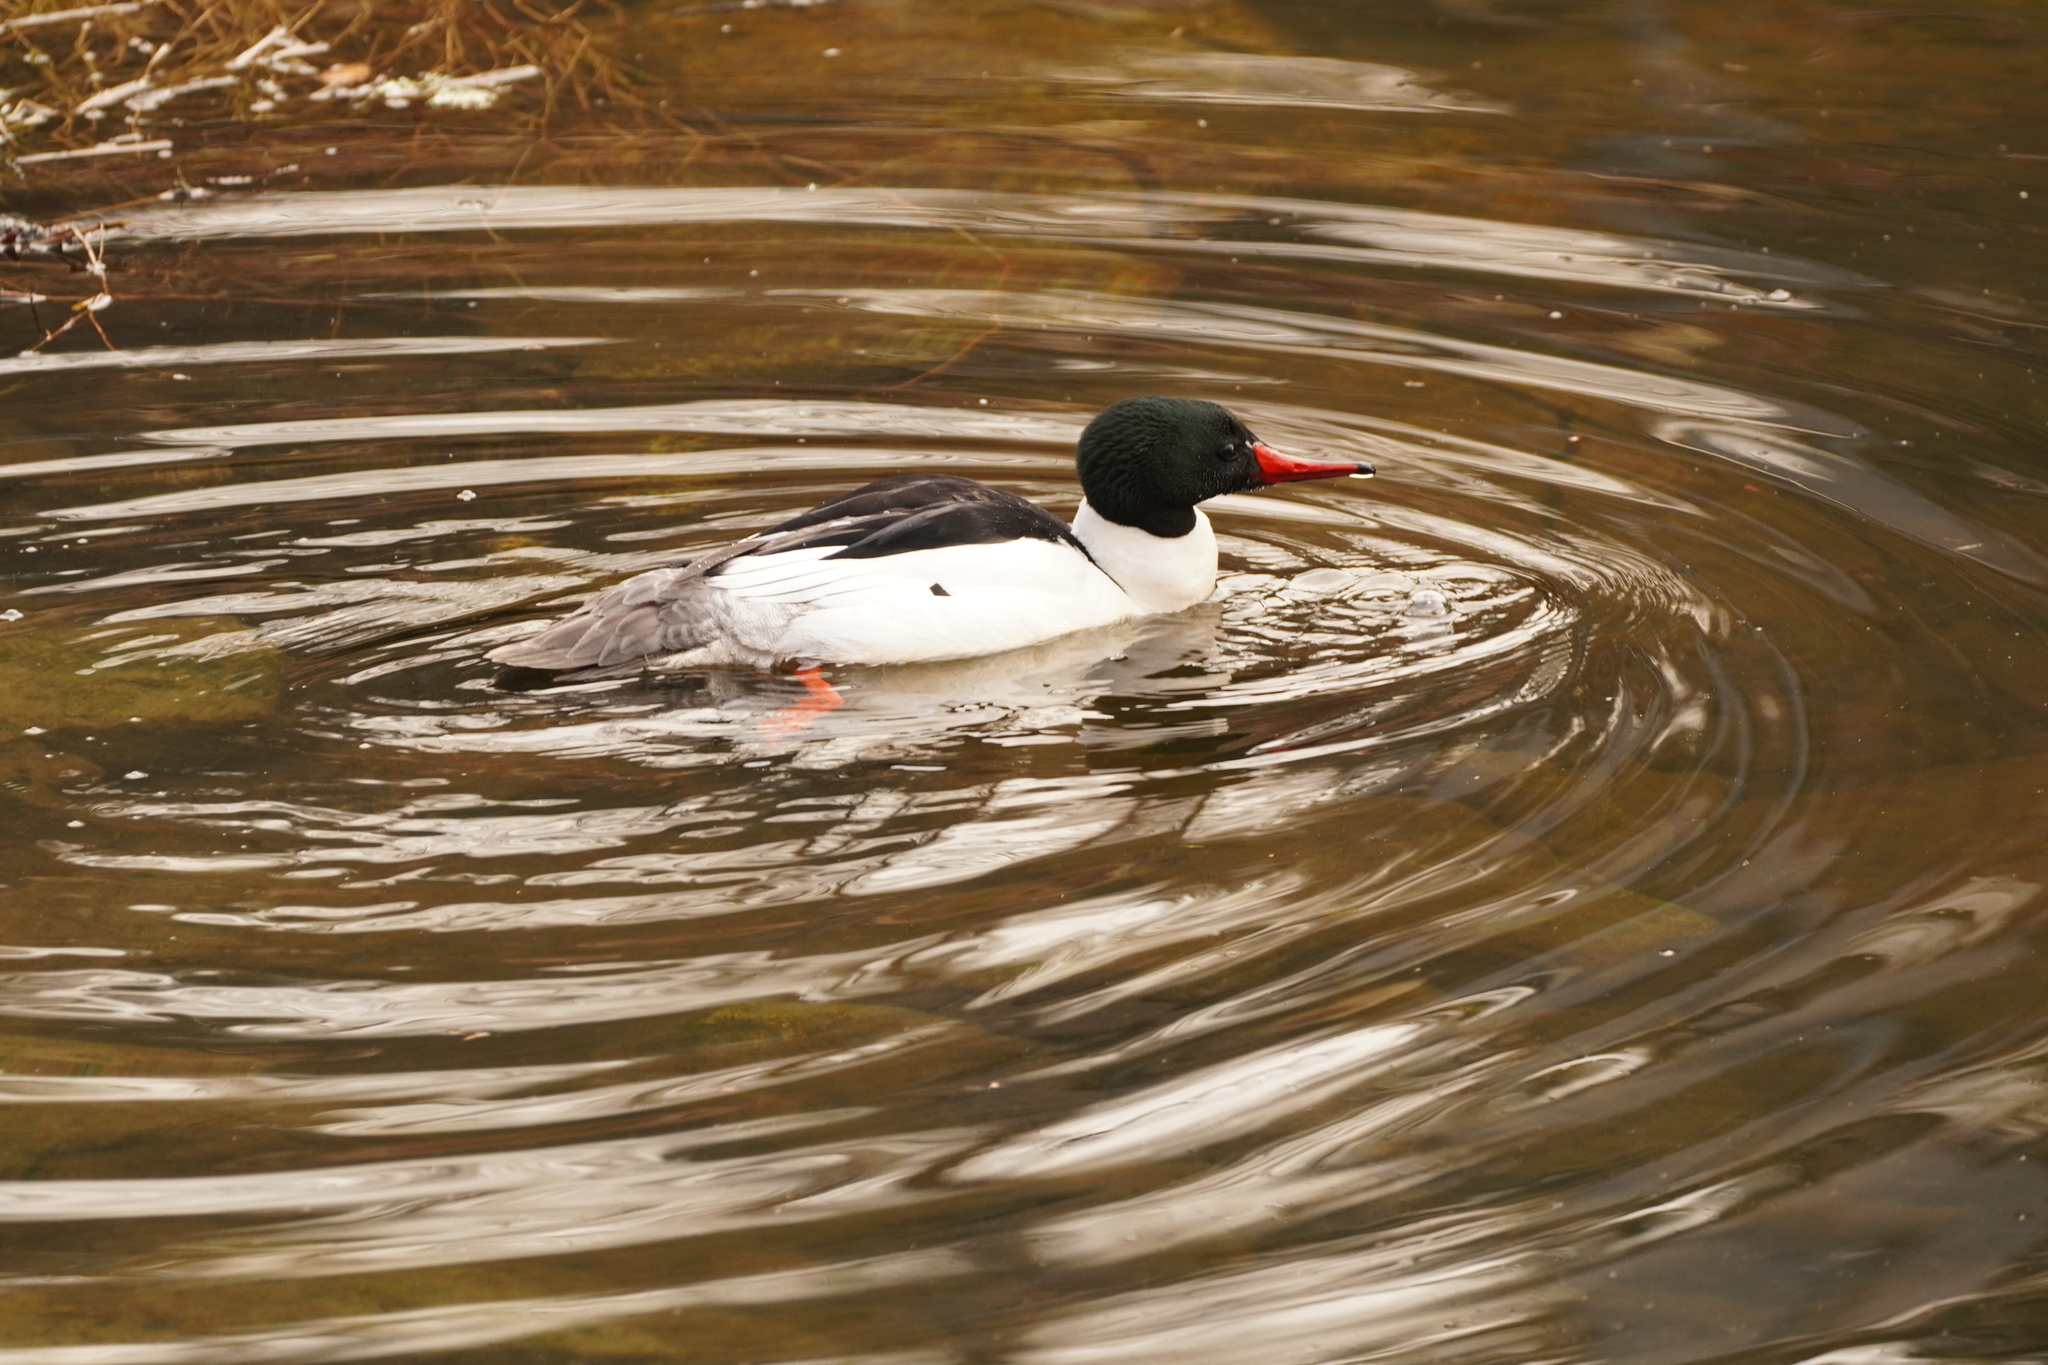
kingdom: Animalia
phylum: Chordata
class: Aves
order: Anseriformes
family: Anatidae
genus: Mergus
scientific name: Mergus merganser
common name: Common merganser
